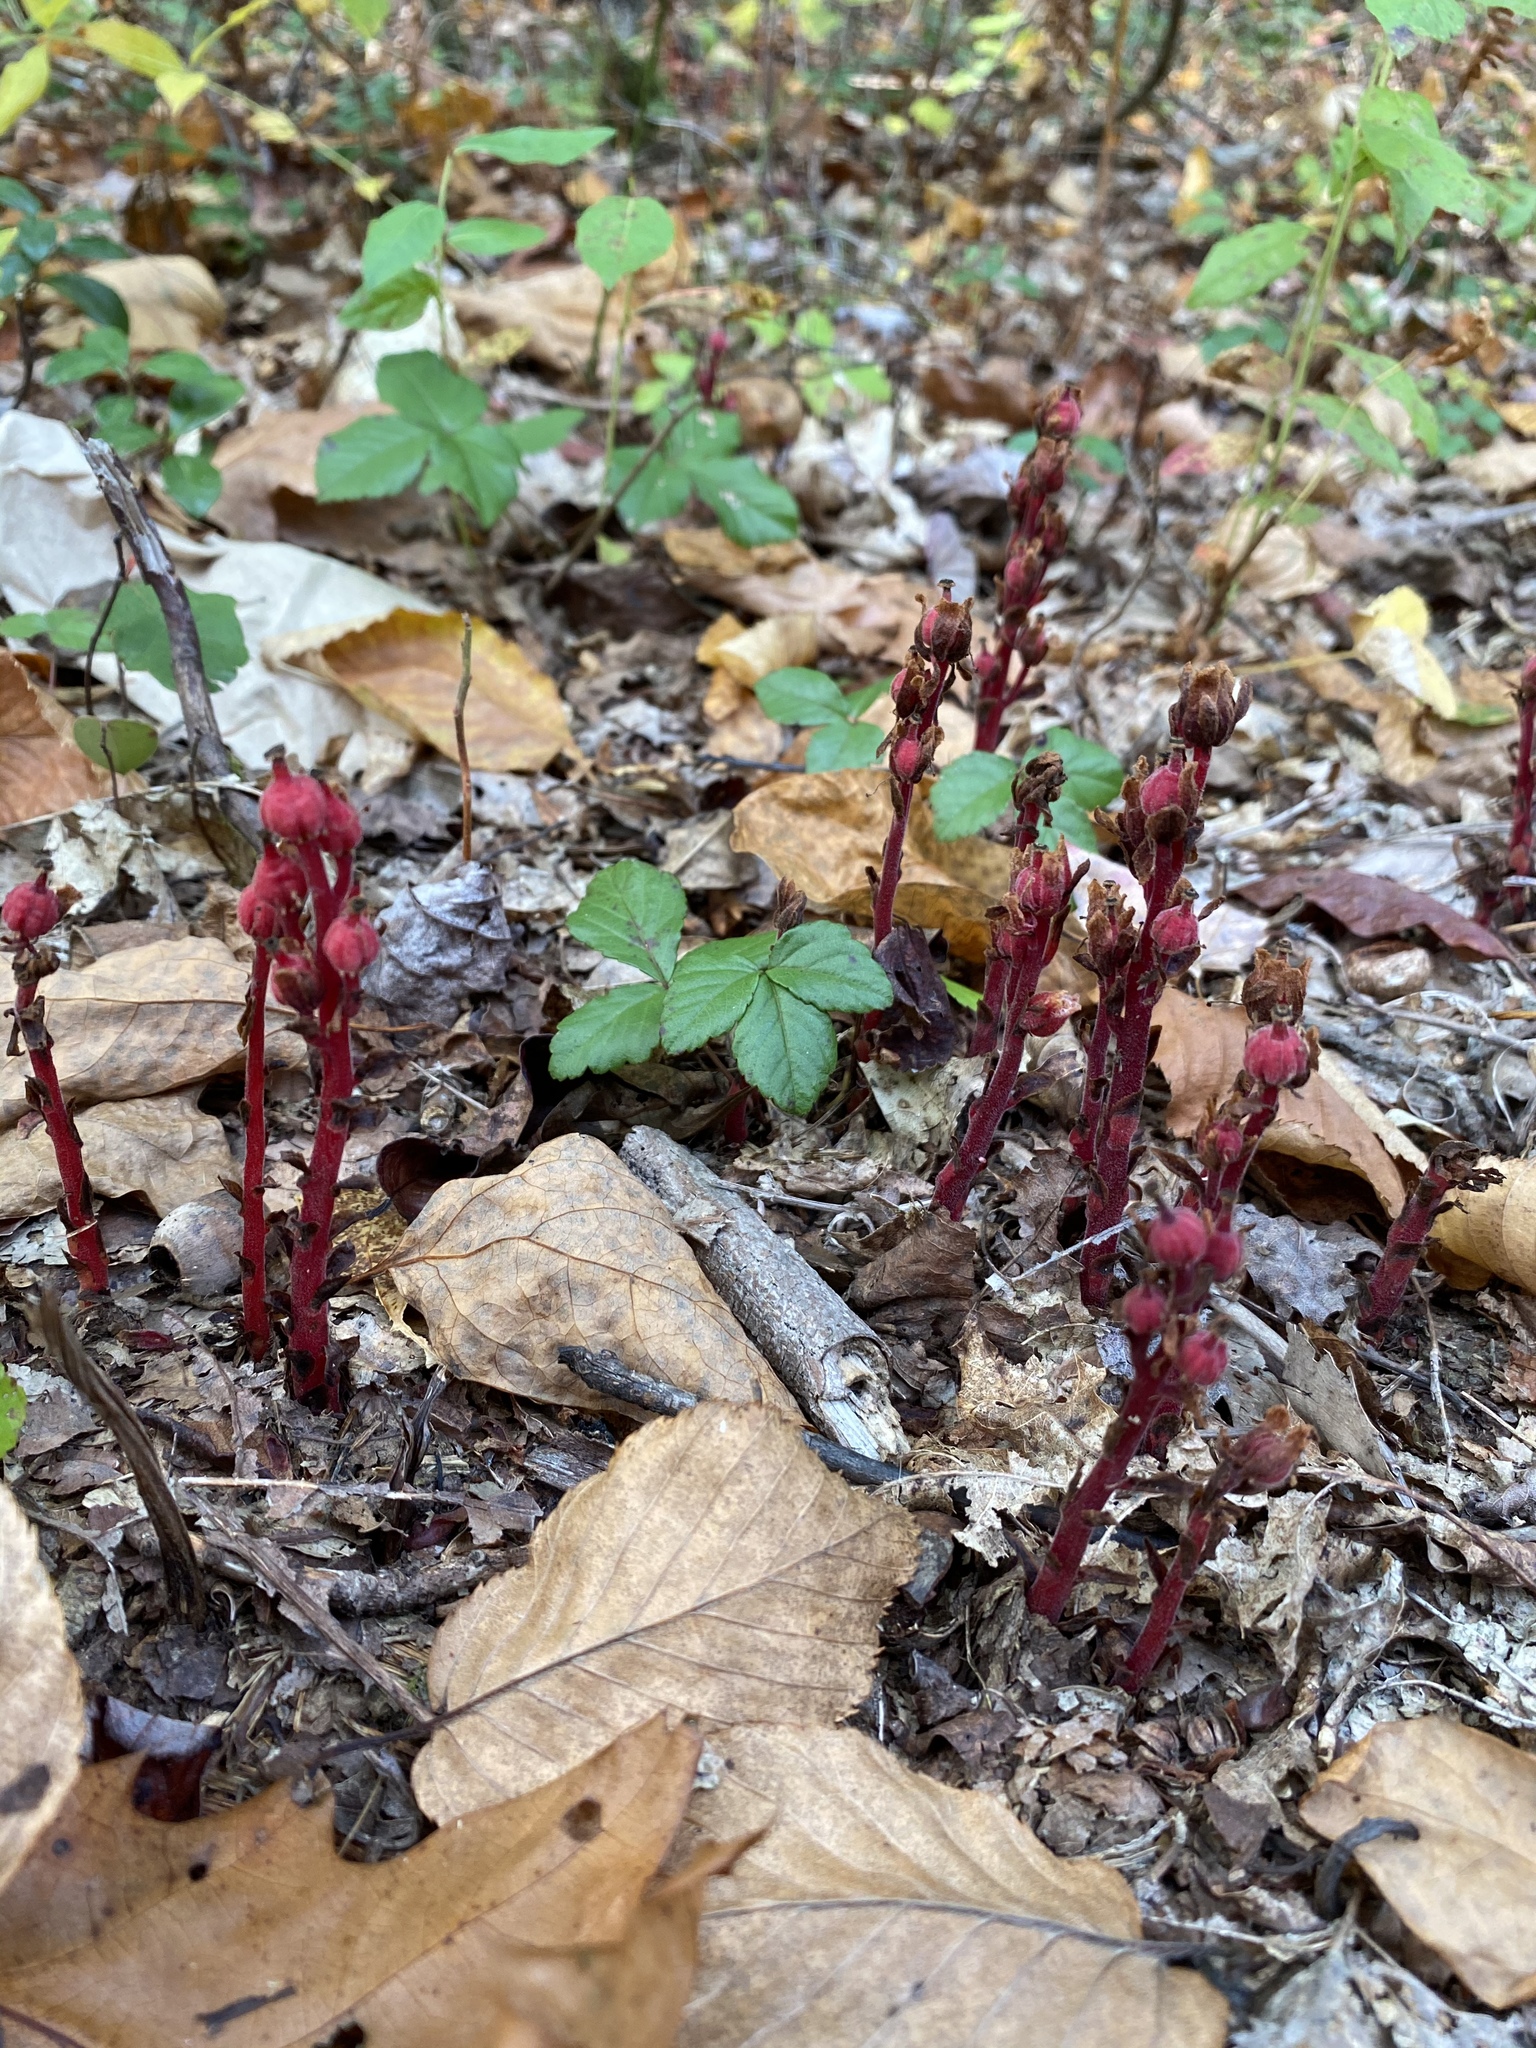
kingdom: Plantae
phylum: Tracheophyta
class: Magnoliopsida
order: Ericales
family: Ericaceae
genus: Hypopitys
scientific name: Hypopitys monotropa
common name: Yellow bird's-nest
